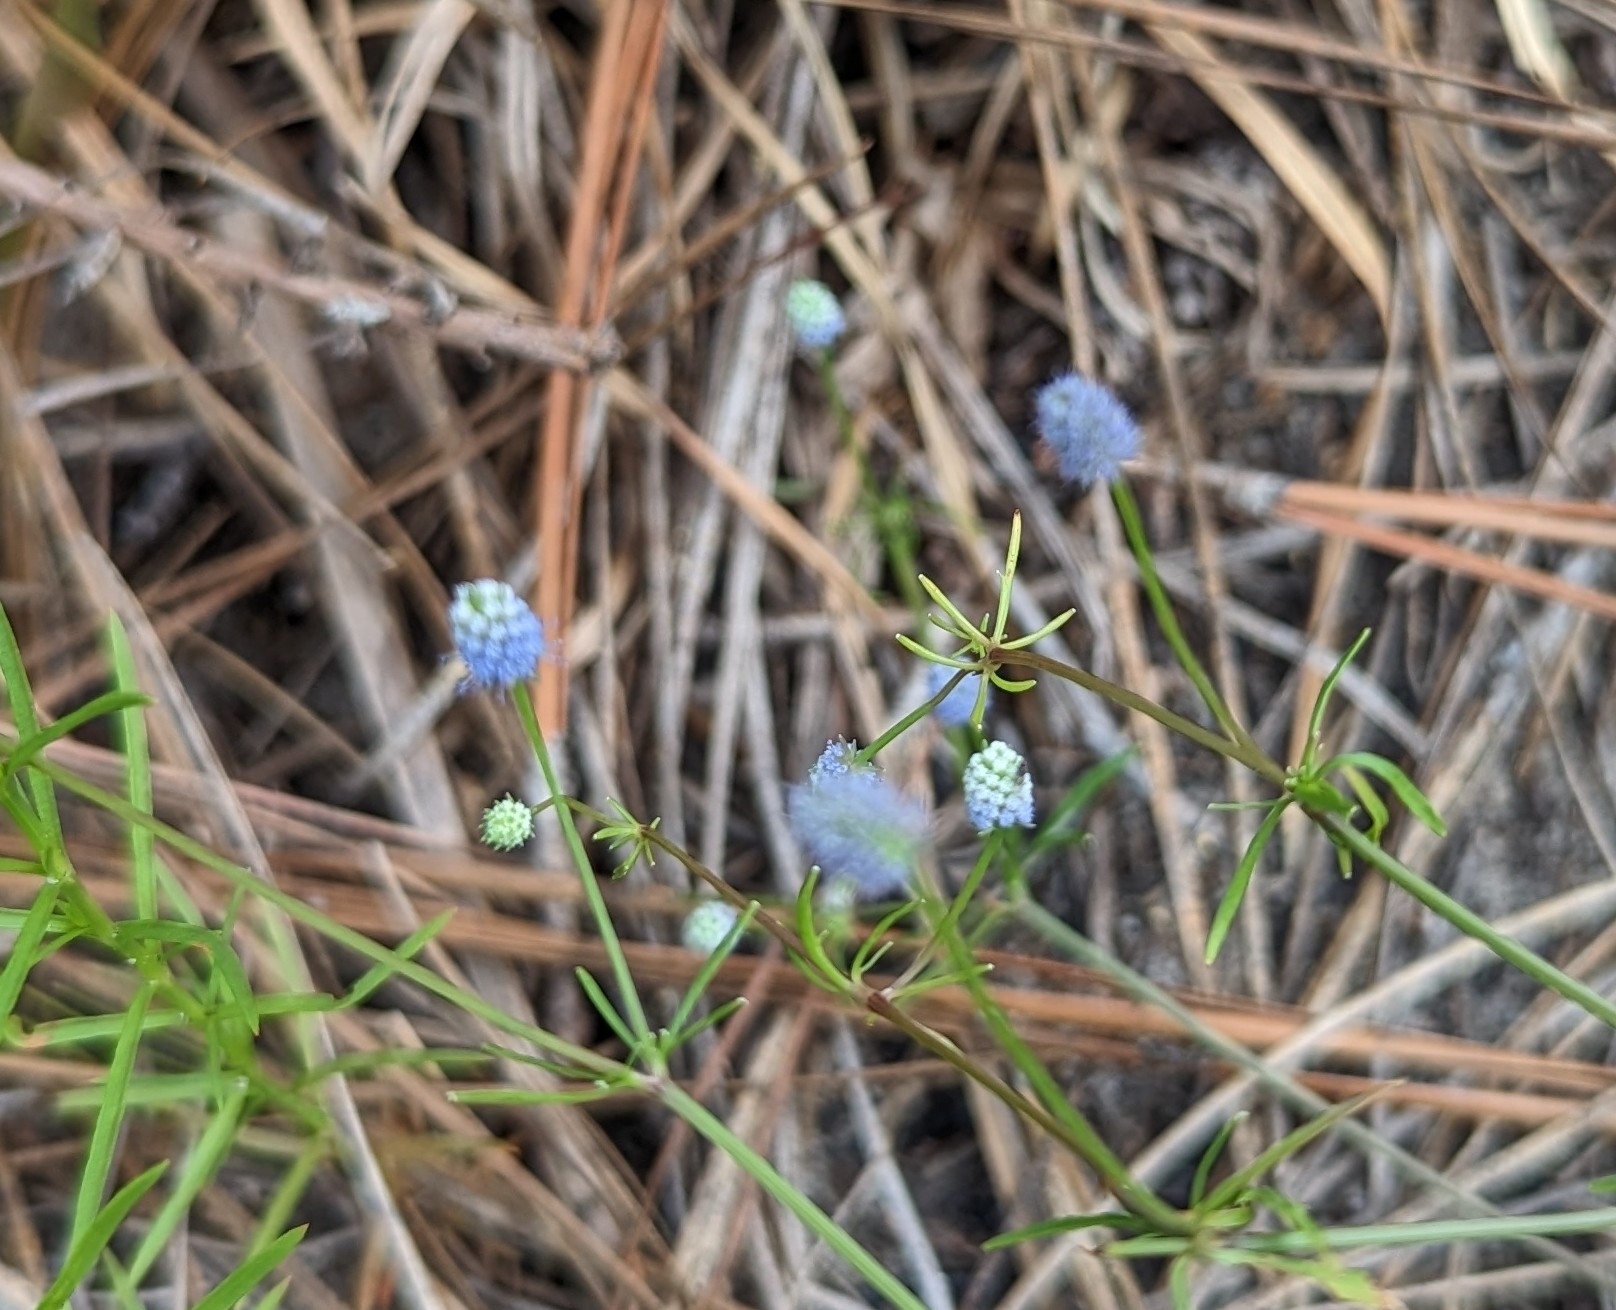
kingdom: Plantae
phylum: Tracheophyta
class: Magnoliopsida
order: Apiales
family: Apiaceae
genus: Eryngium
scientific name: Eryngium baldwinii
